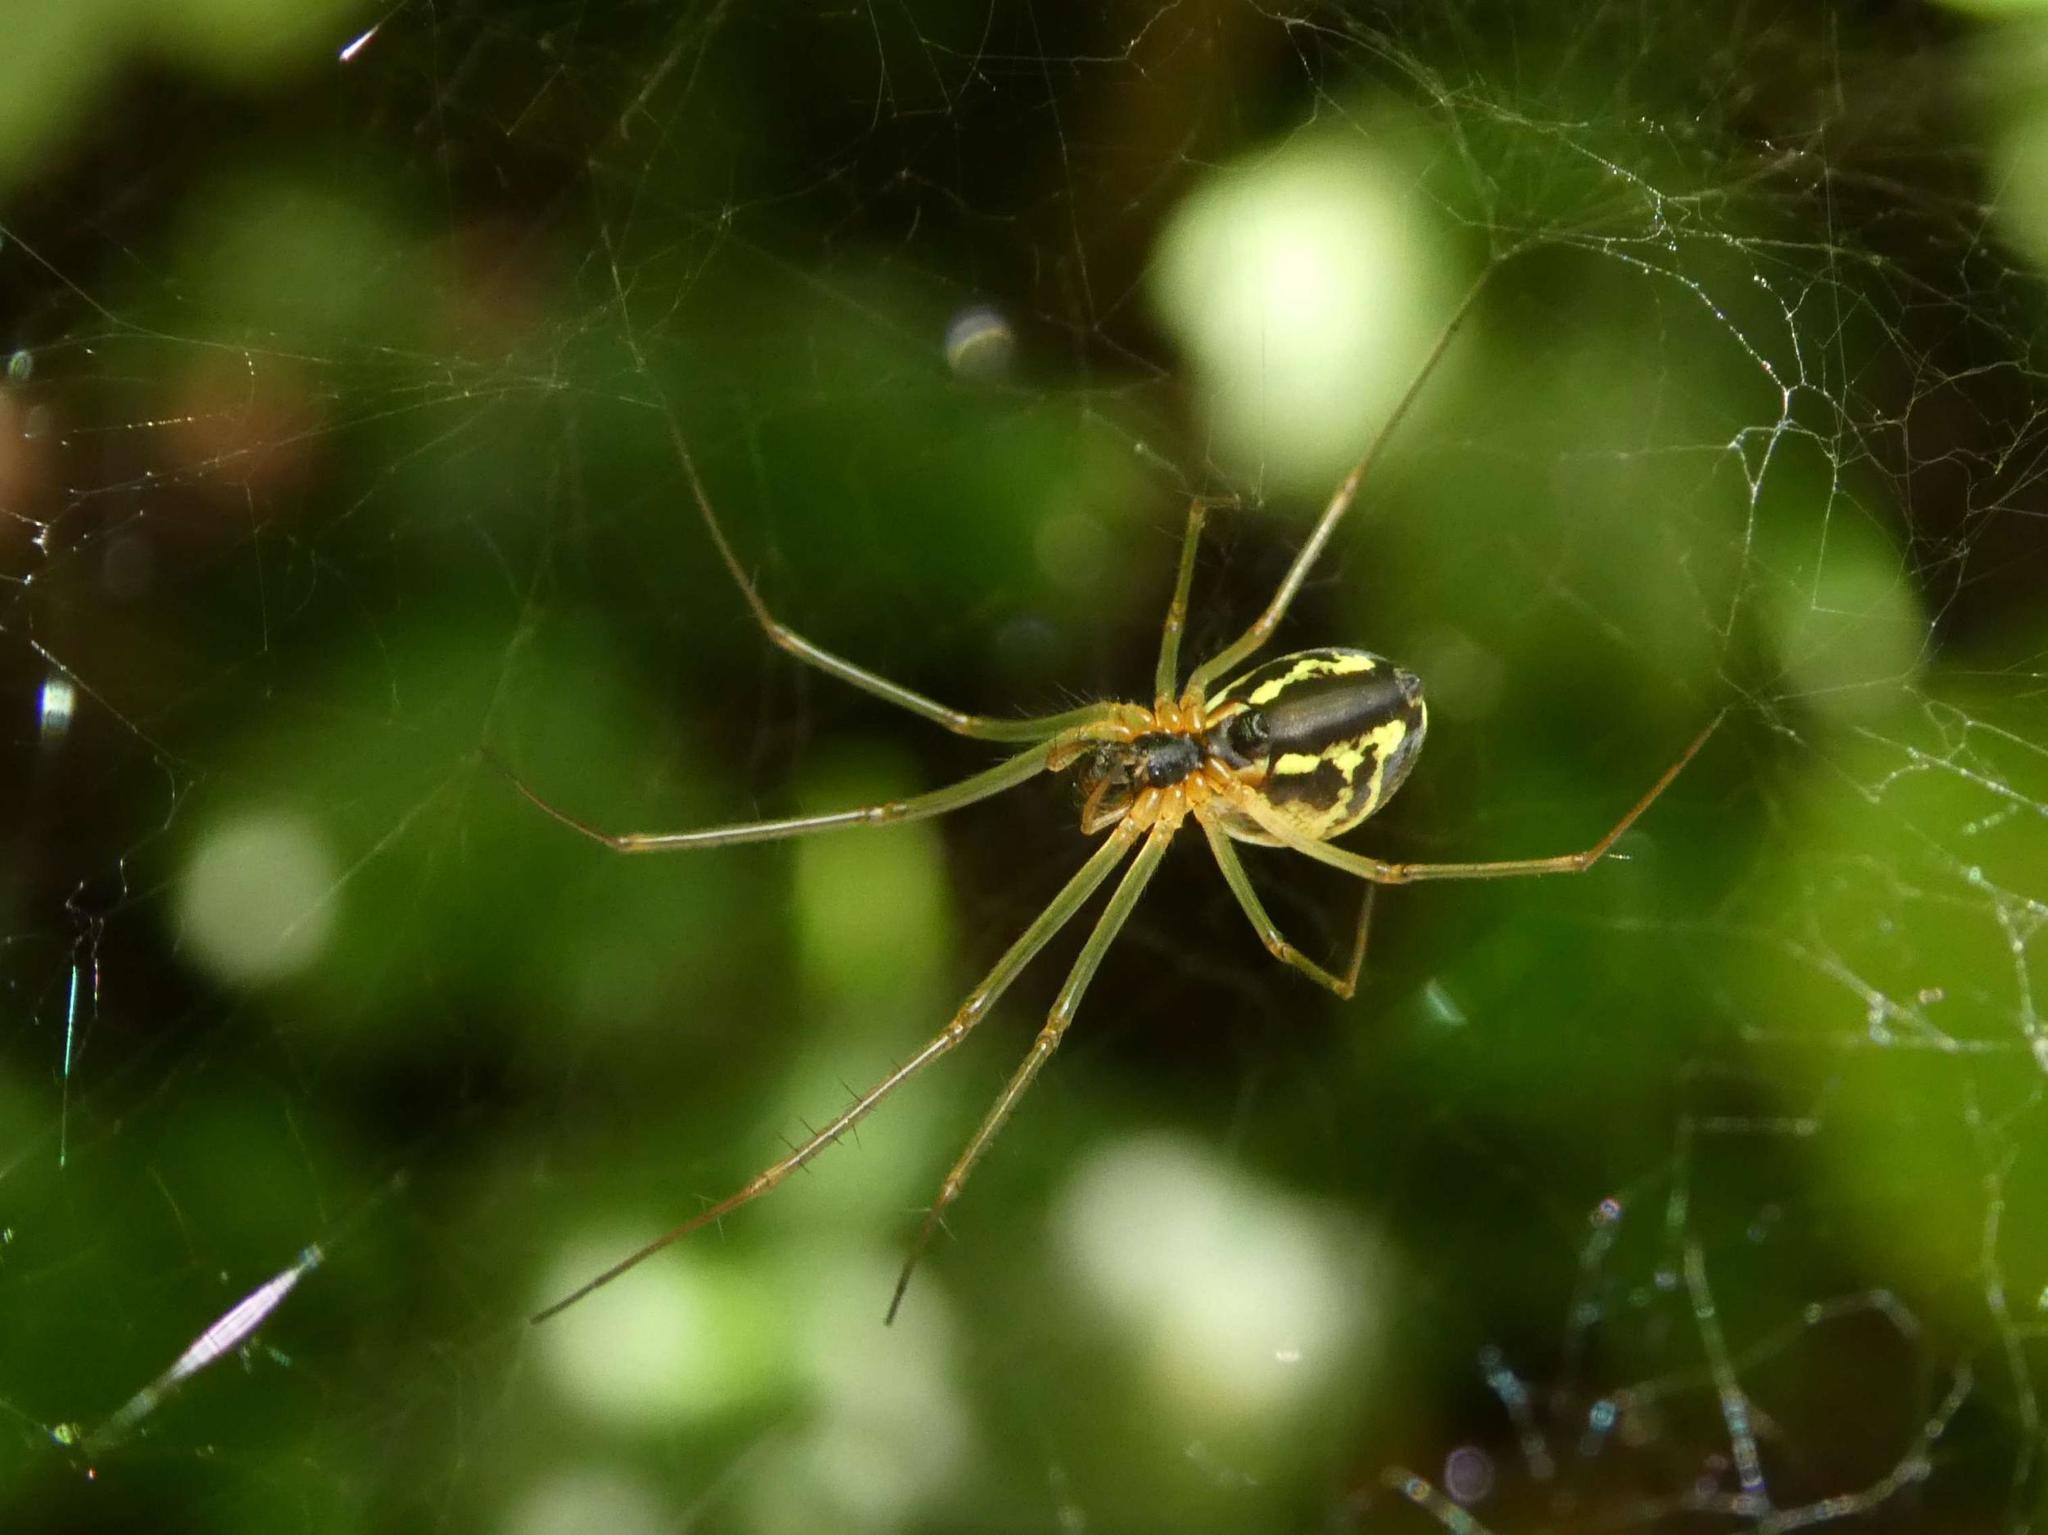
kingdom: Animalia
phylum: Arthropoda
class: Arachnida
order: Araneae
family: Linyphiidae
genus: Neriene
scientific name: Neriene radiata
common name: Filmy dome spider
